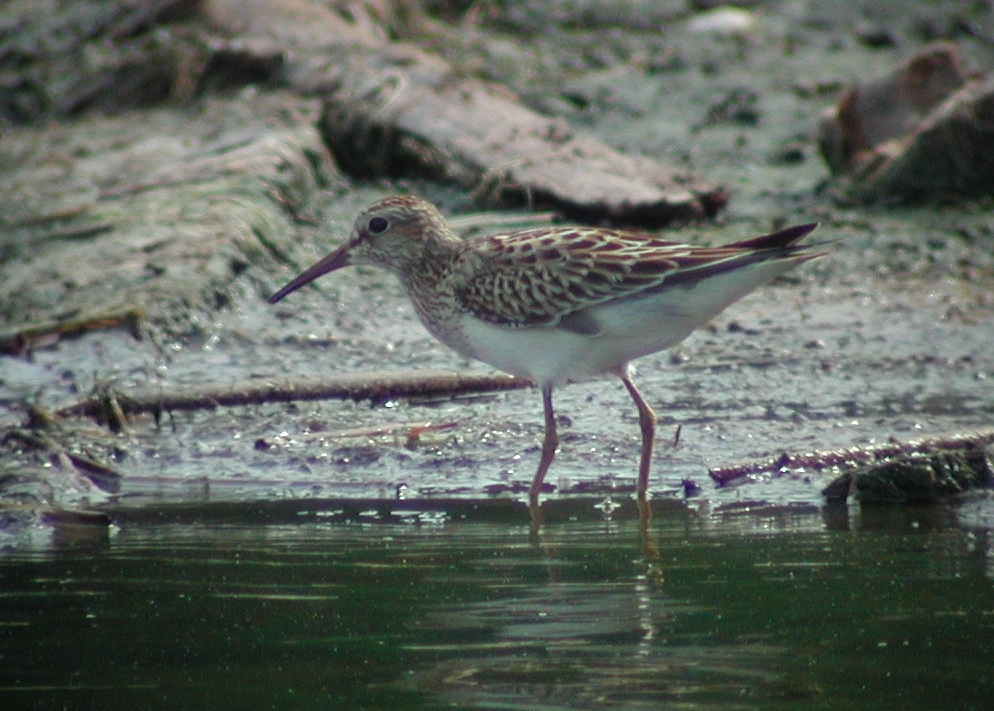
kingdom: Animalia
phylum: Chordata
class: Aves
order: Charadriiformes
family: Scolopacidae
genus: Calidris
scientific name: Calidris melanotos
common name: Pectoral sandpiper
